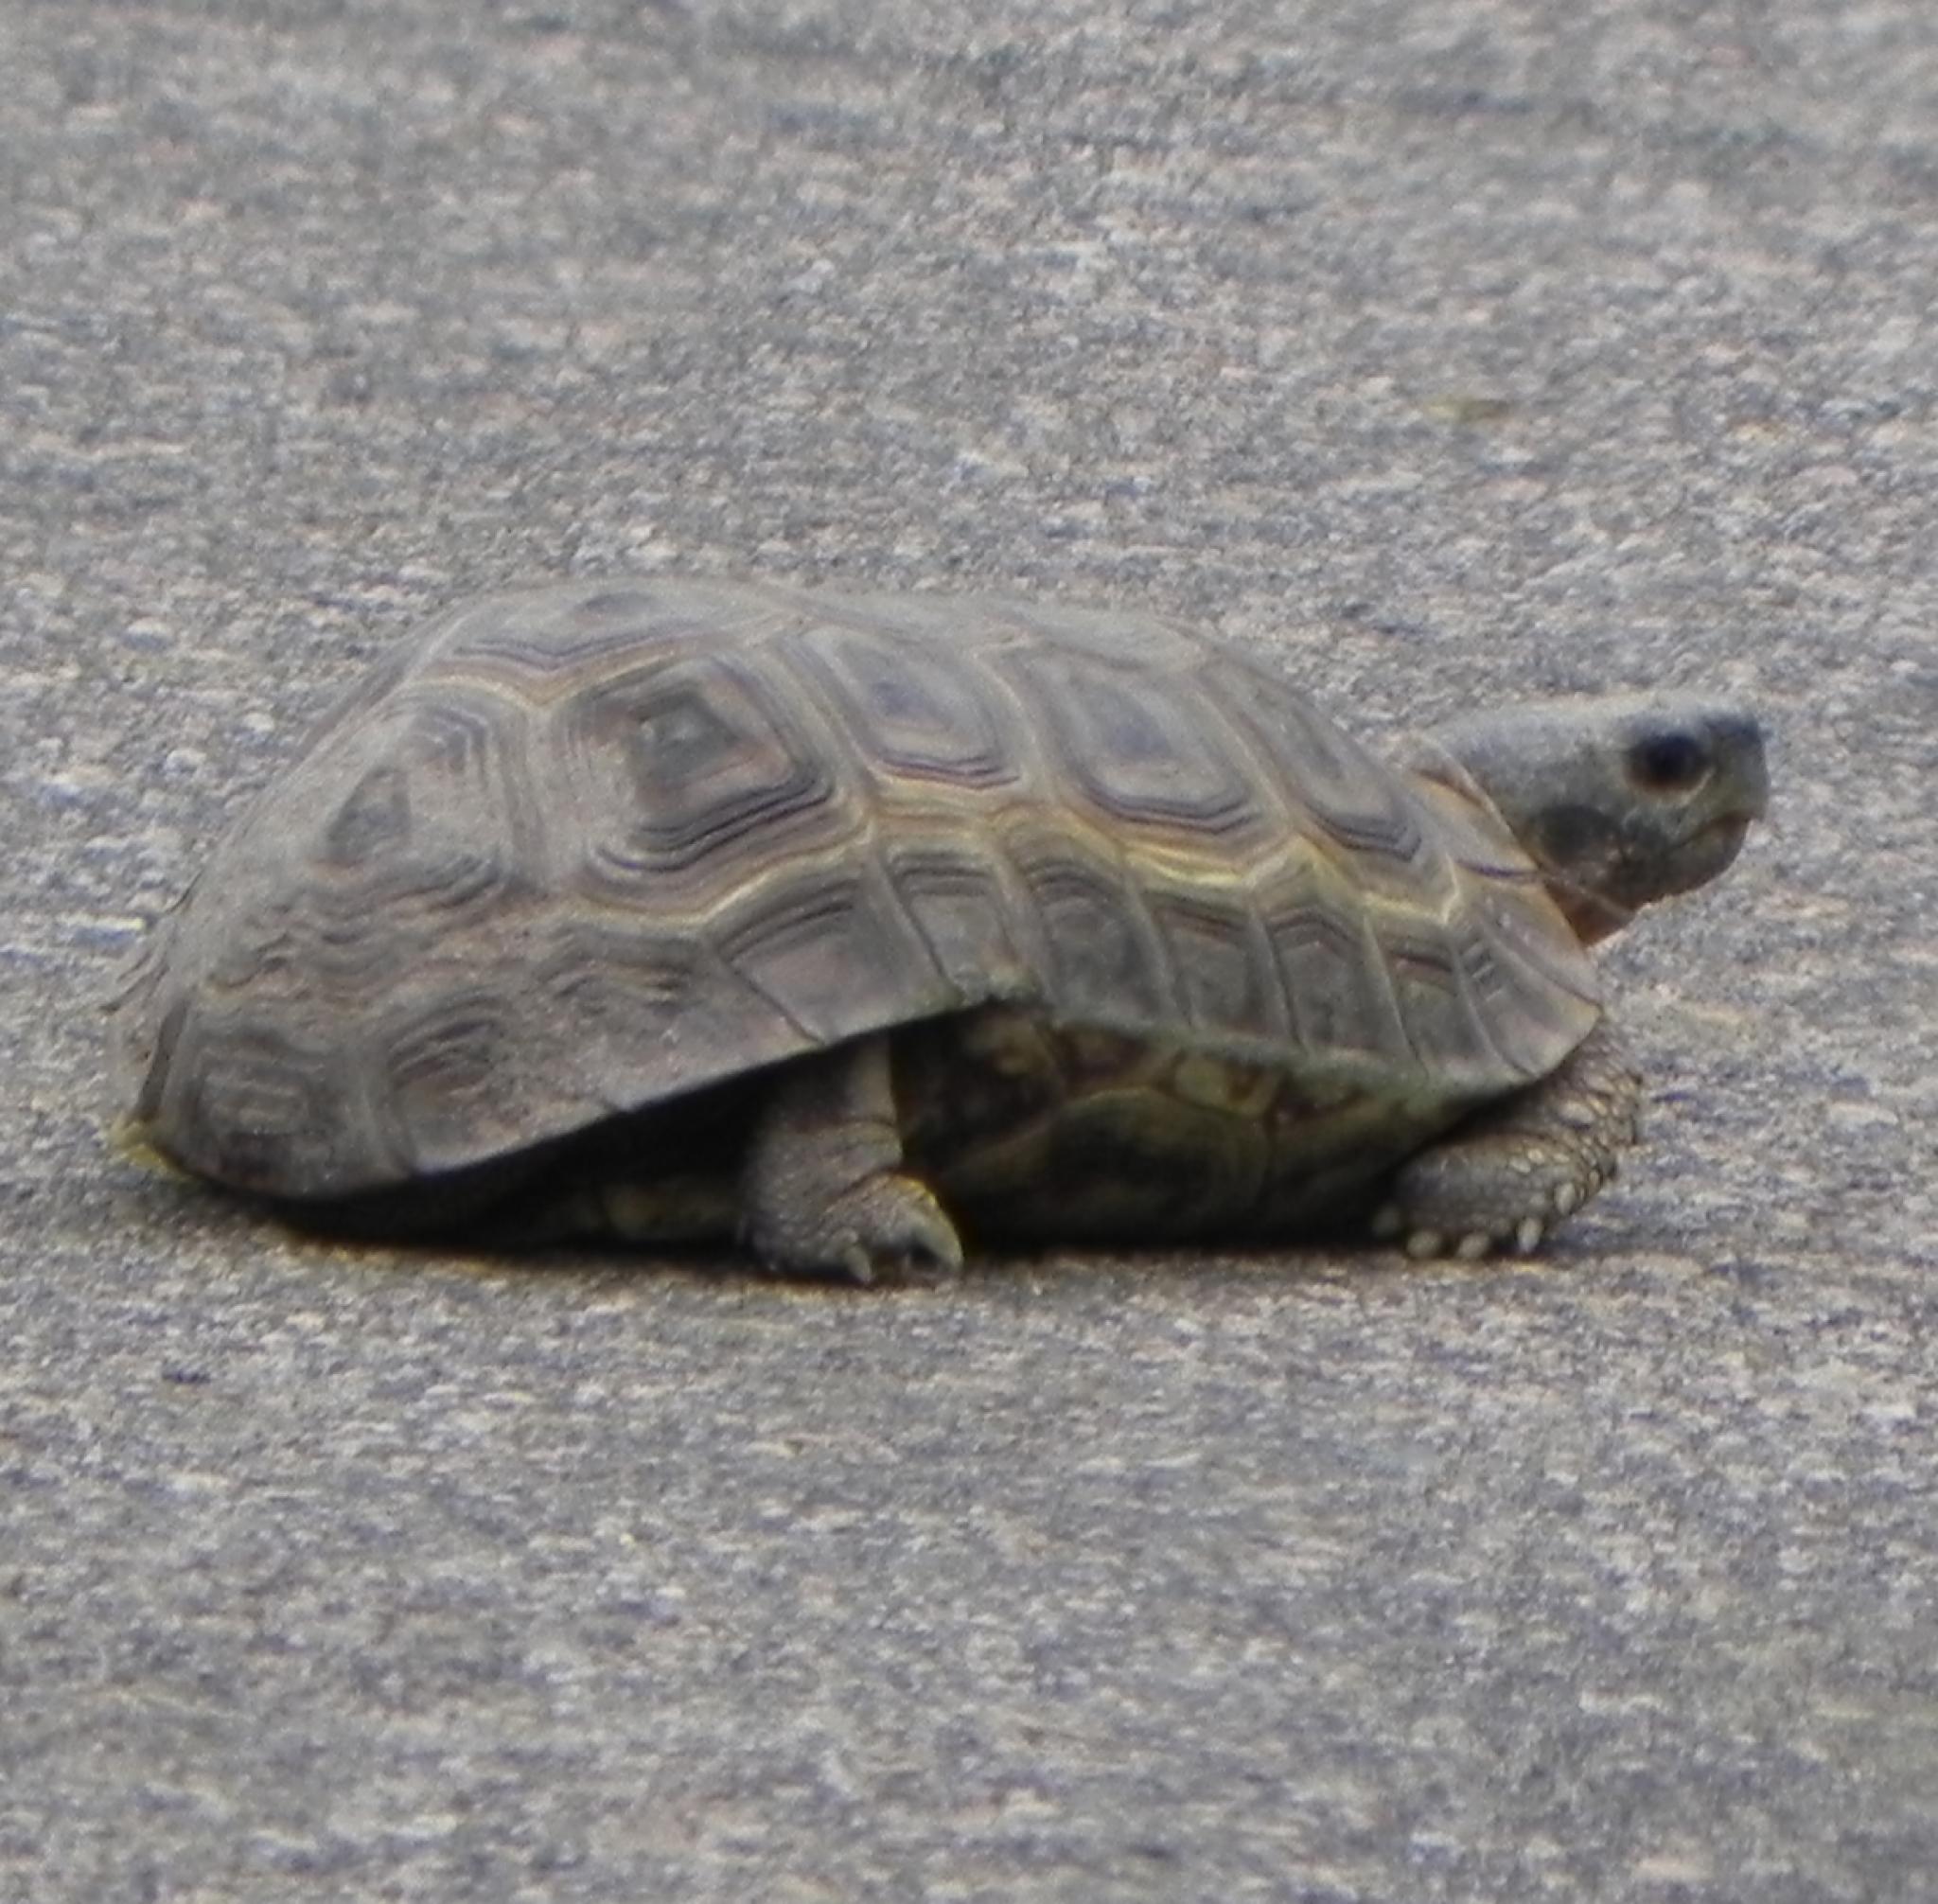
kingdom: Animalia
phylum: Chordata
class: Testudines
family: Testudinidae
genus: Kinixys
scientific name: Kinixys spekii
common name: Speke's hingeback tortoise
